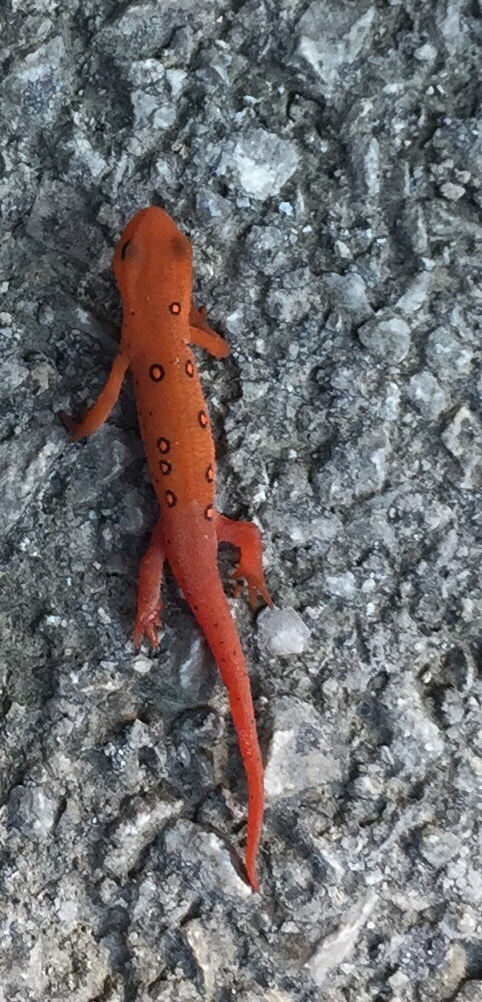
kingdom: Animalia
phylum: Chordata
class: Amphibia
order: Caudata
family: Salamandridae
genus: Notophthalmus
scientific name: Notophthalmus viridescens
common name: Eastern newt
